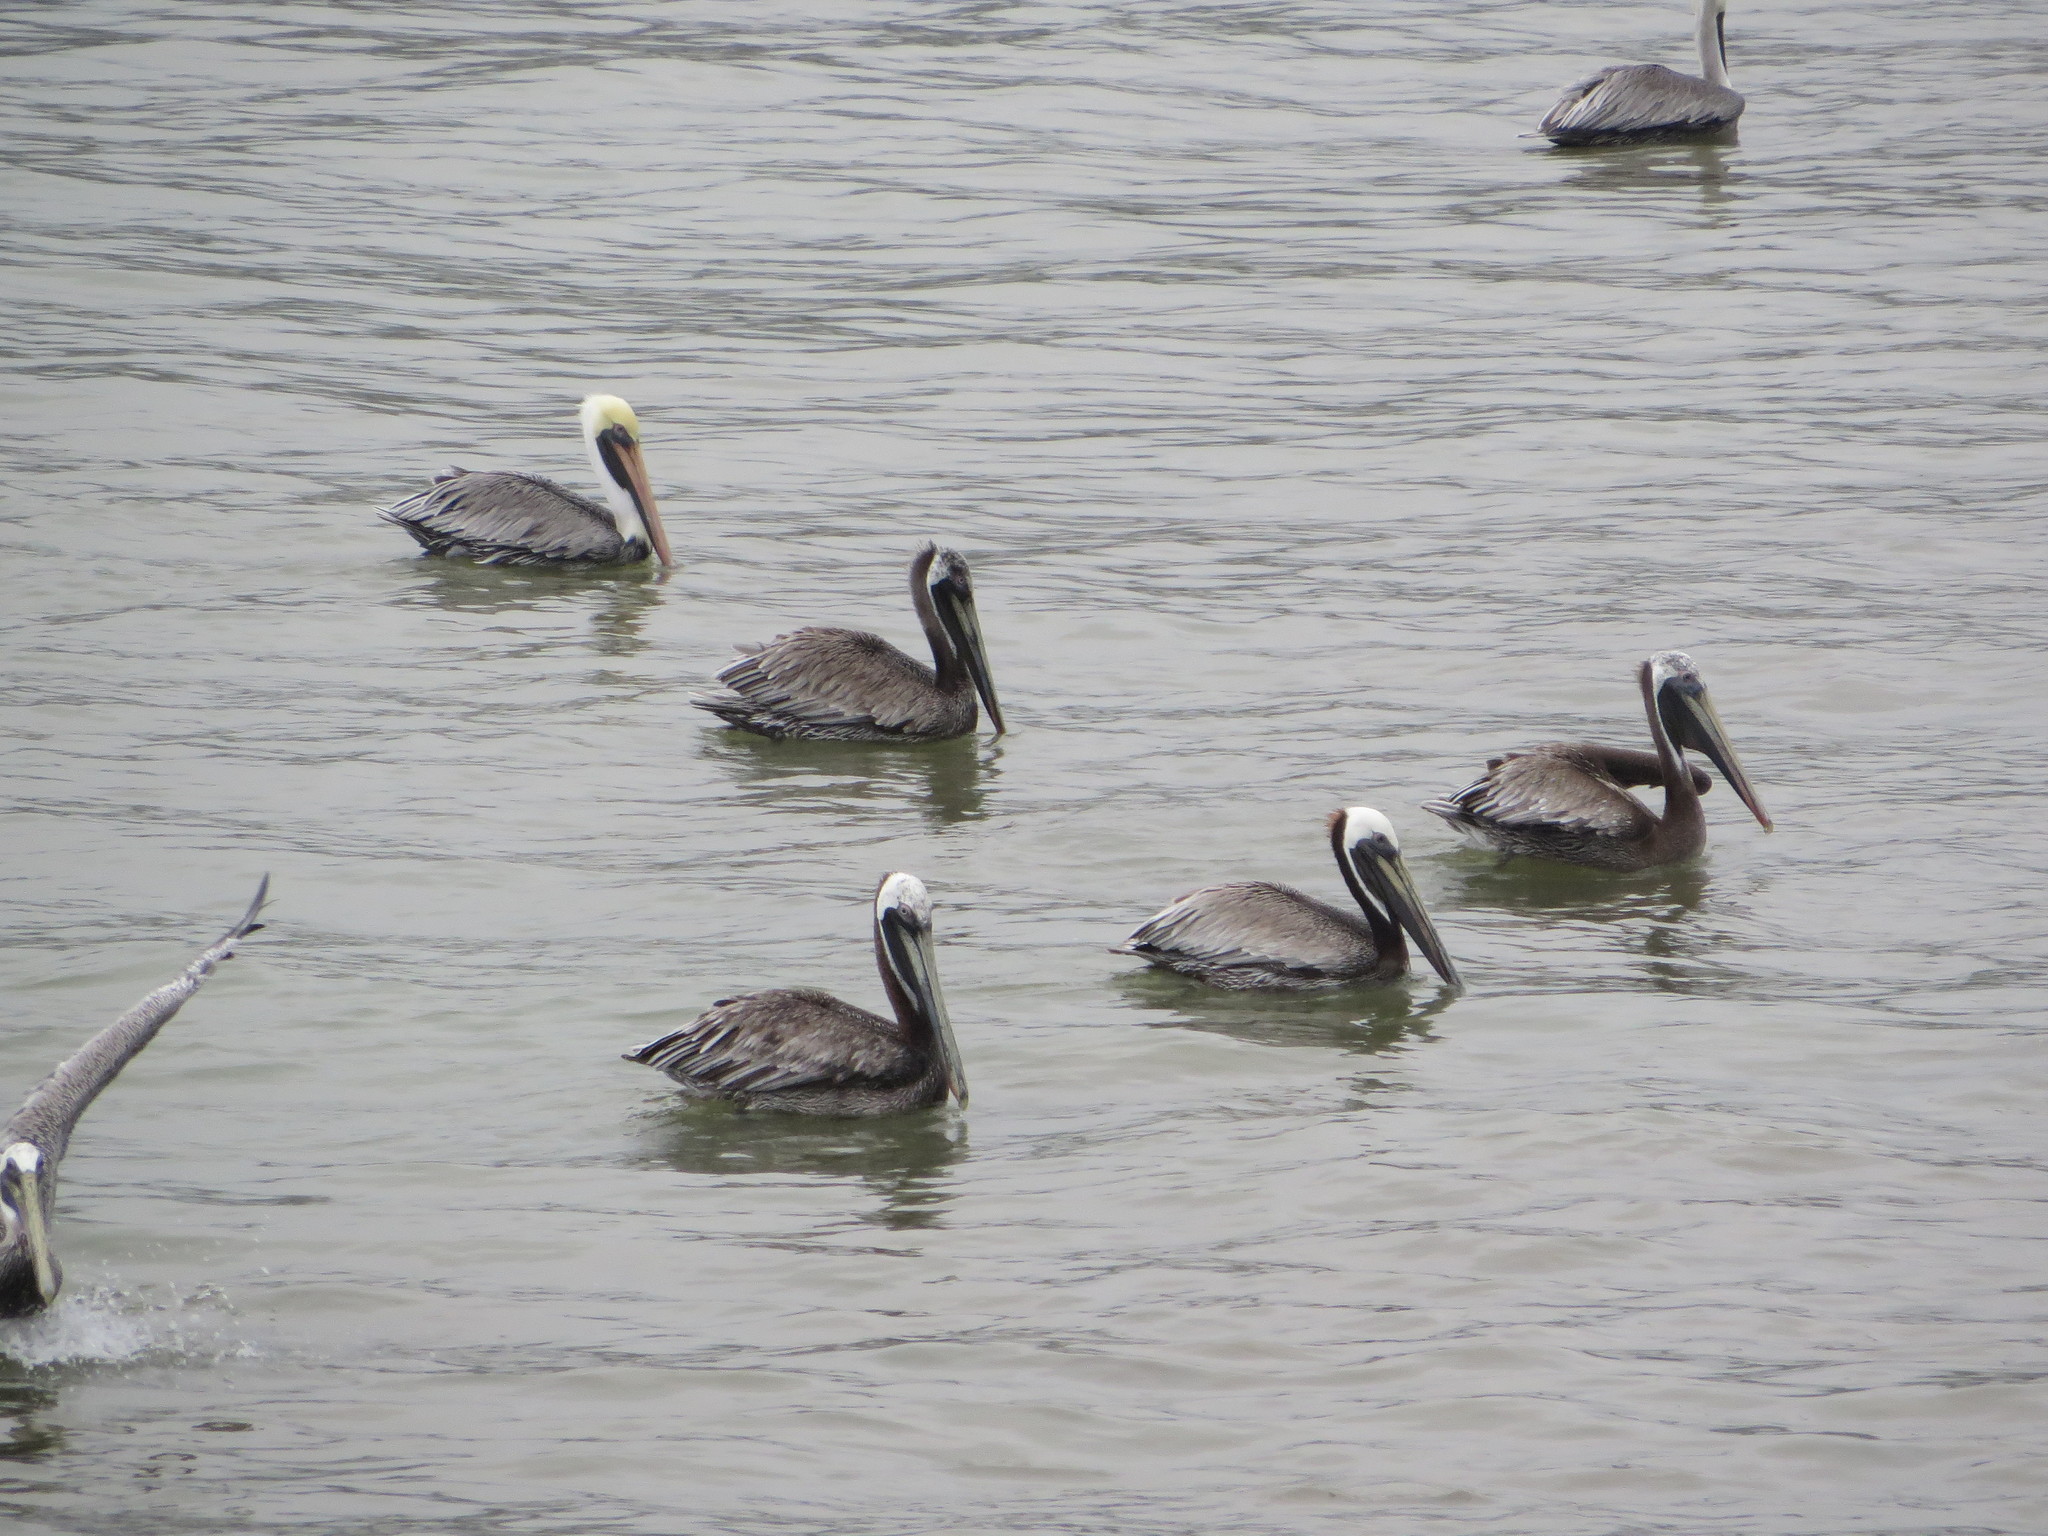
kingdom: Animalia
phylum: Chordata
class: Aves
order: Pelecaniformes
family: Pelecanidae
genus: Pelecanus
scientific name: Pelecanus occidentalis
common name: Brown pelican
